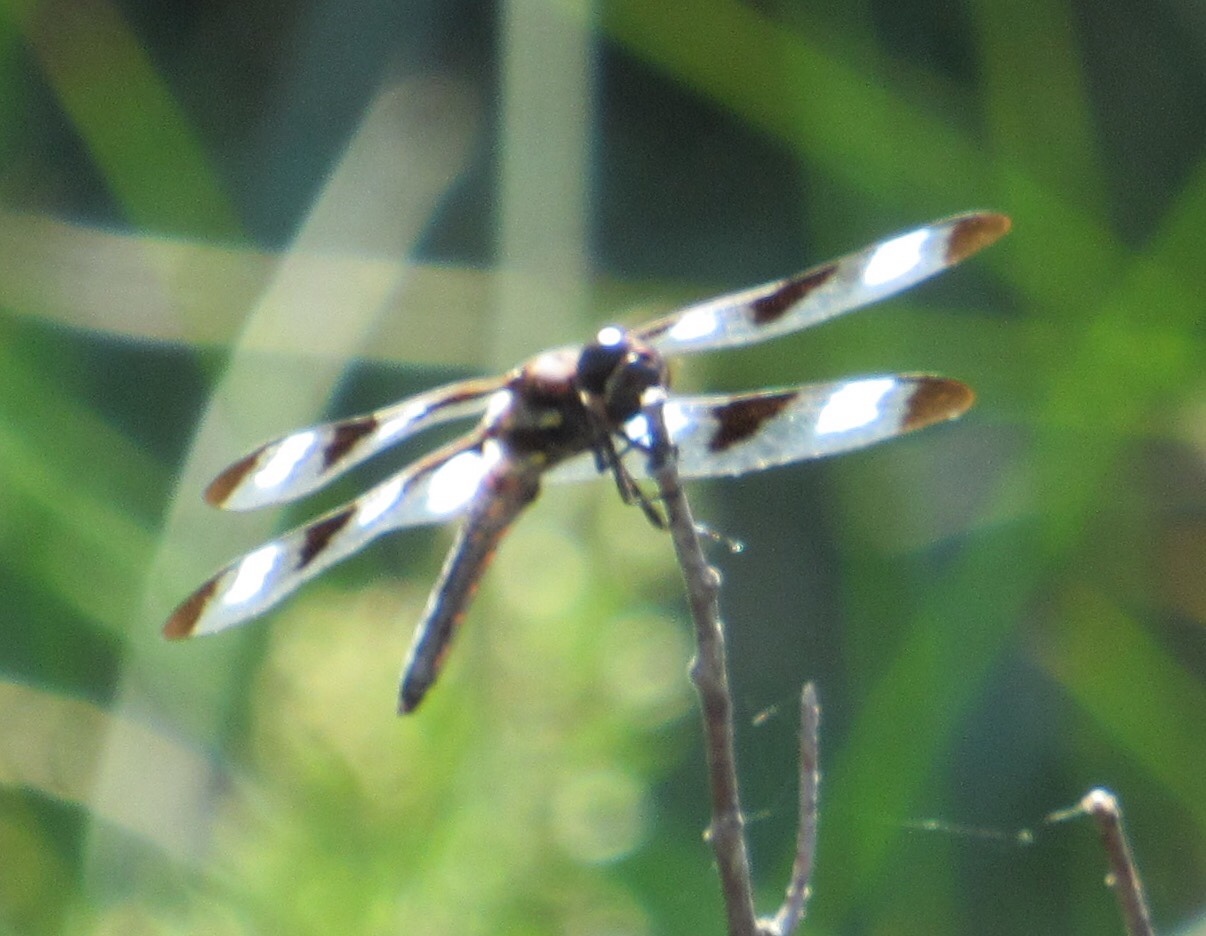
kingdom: Animalia
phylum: Arthropoda
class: Insecta
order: Odonata
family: Libellulidae
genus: Libellula
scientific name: Libellula pulchella
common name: Twelve-spotted skimmer
